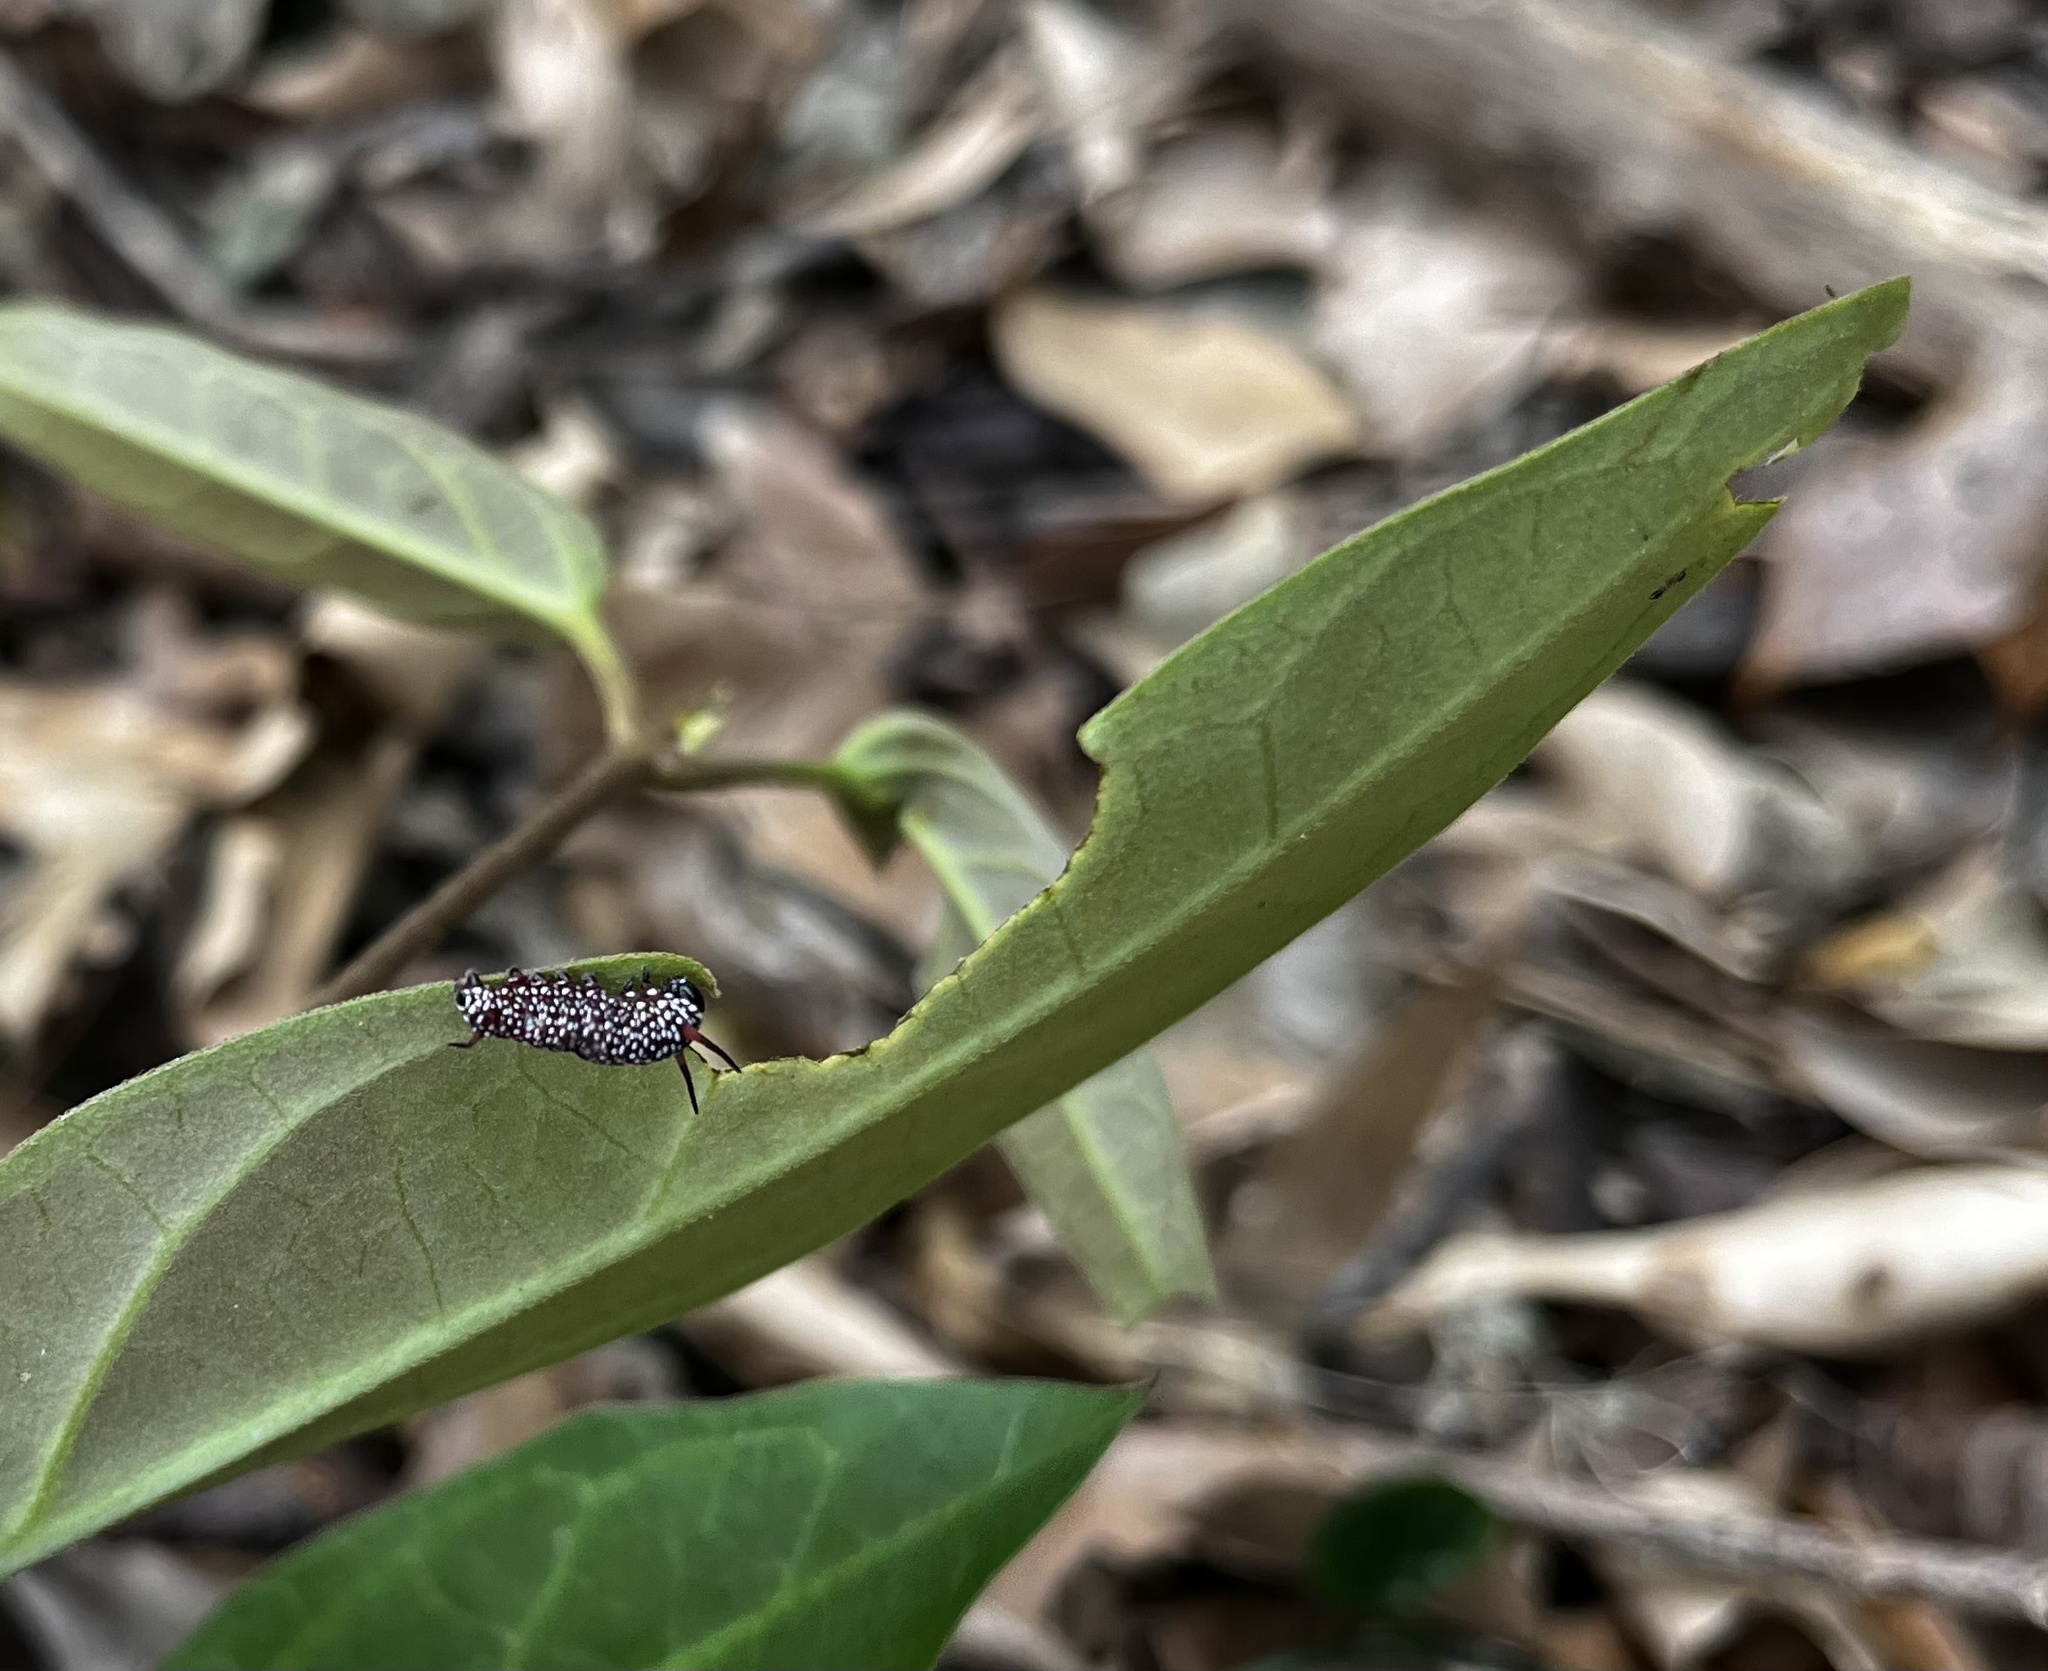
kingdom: Animalia
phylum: Arthropoda
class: Insecta
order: Lepidoptera
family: Nymphalidae
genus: Ideopsis
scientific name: Ideopsis similis
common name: Ceylon blue glassy tiger
